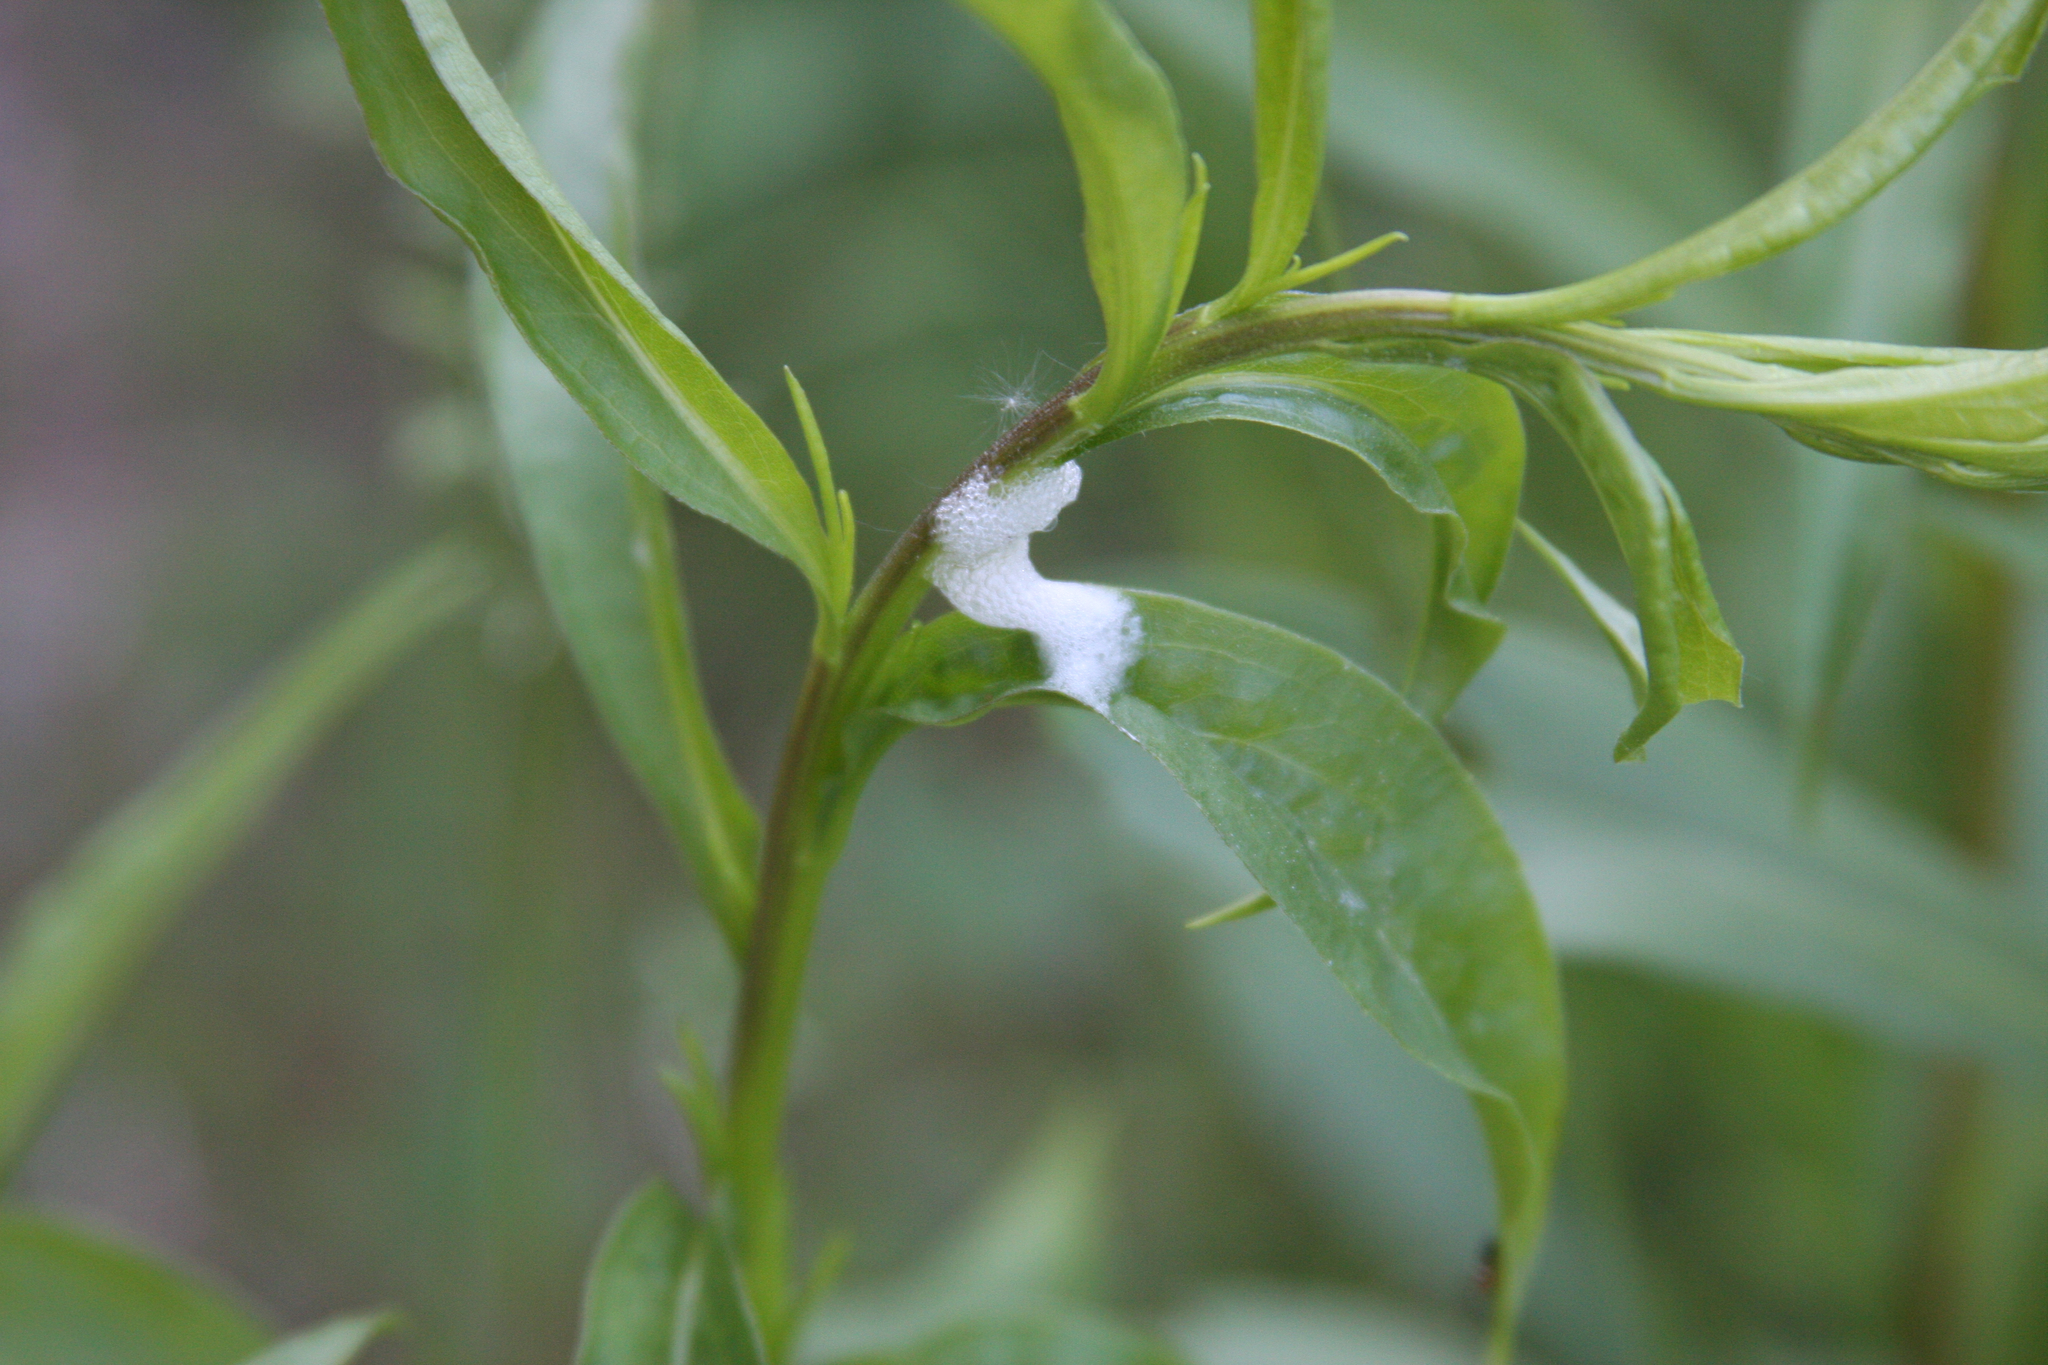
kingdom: Animalia
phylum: Arthropoda
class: Insecta
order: Hemiptera
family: Aphrophoridae
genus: Philaenus
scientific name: Philaenus spumarius
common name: Meadow spittlebug
